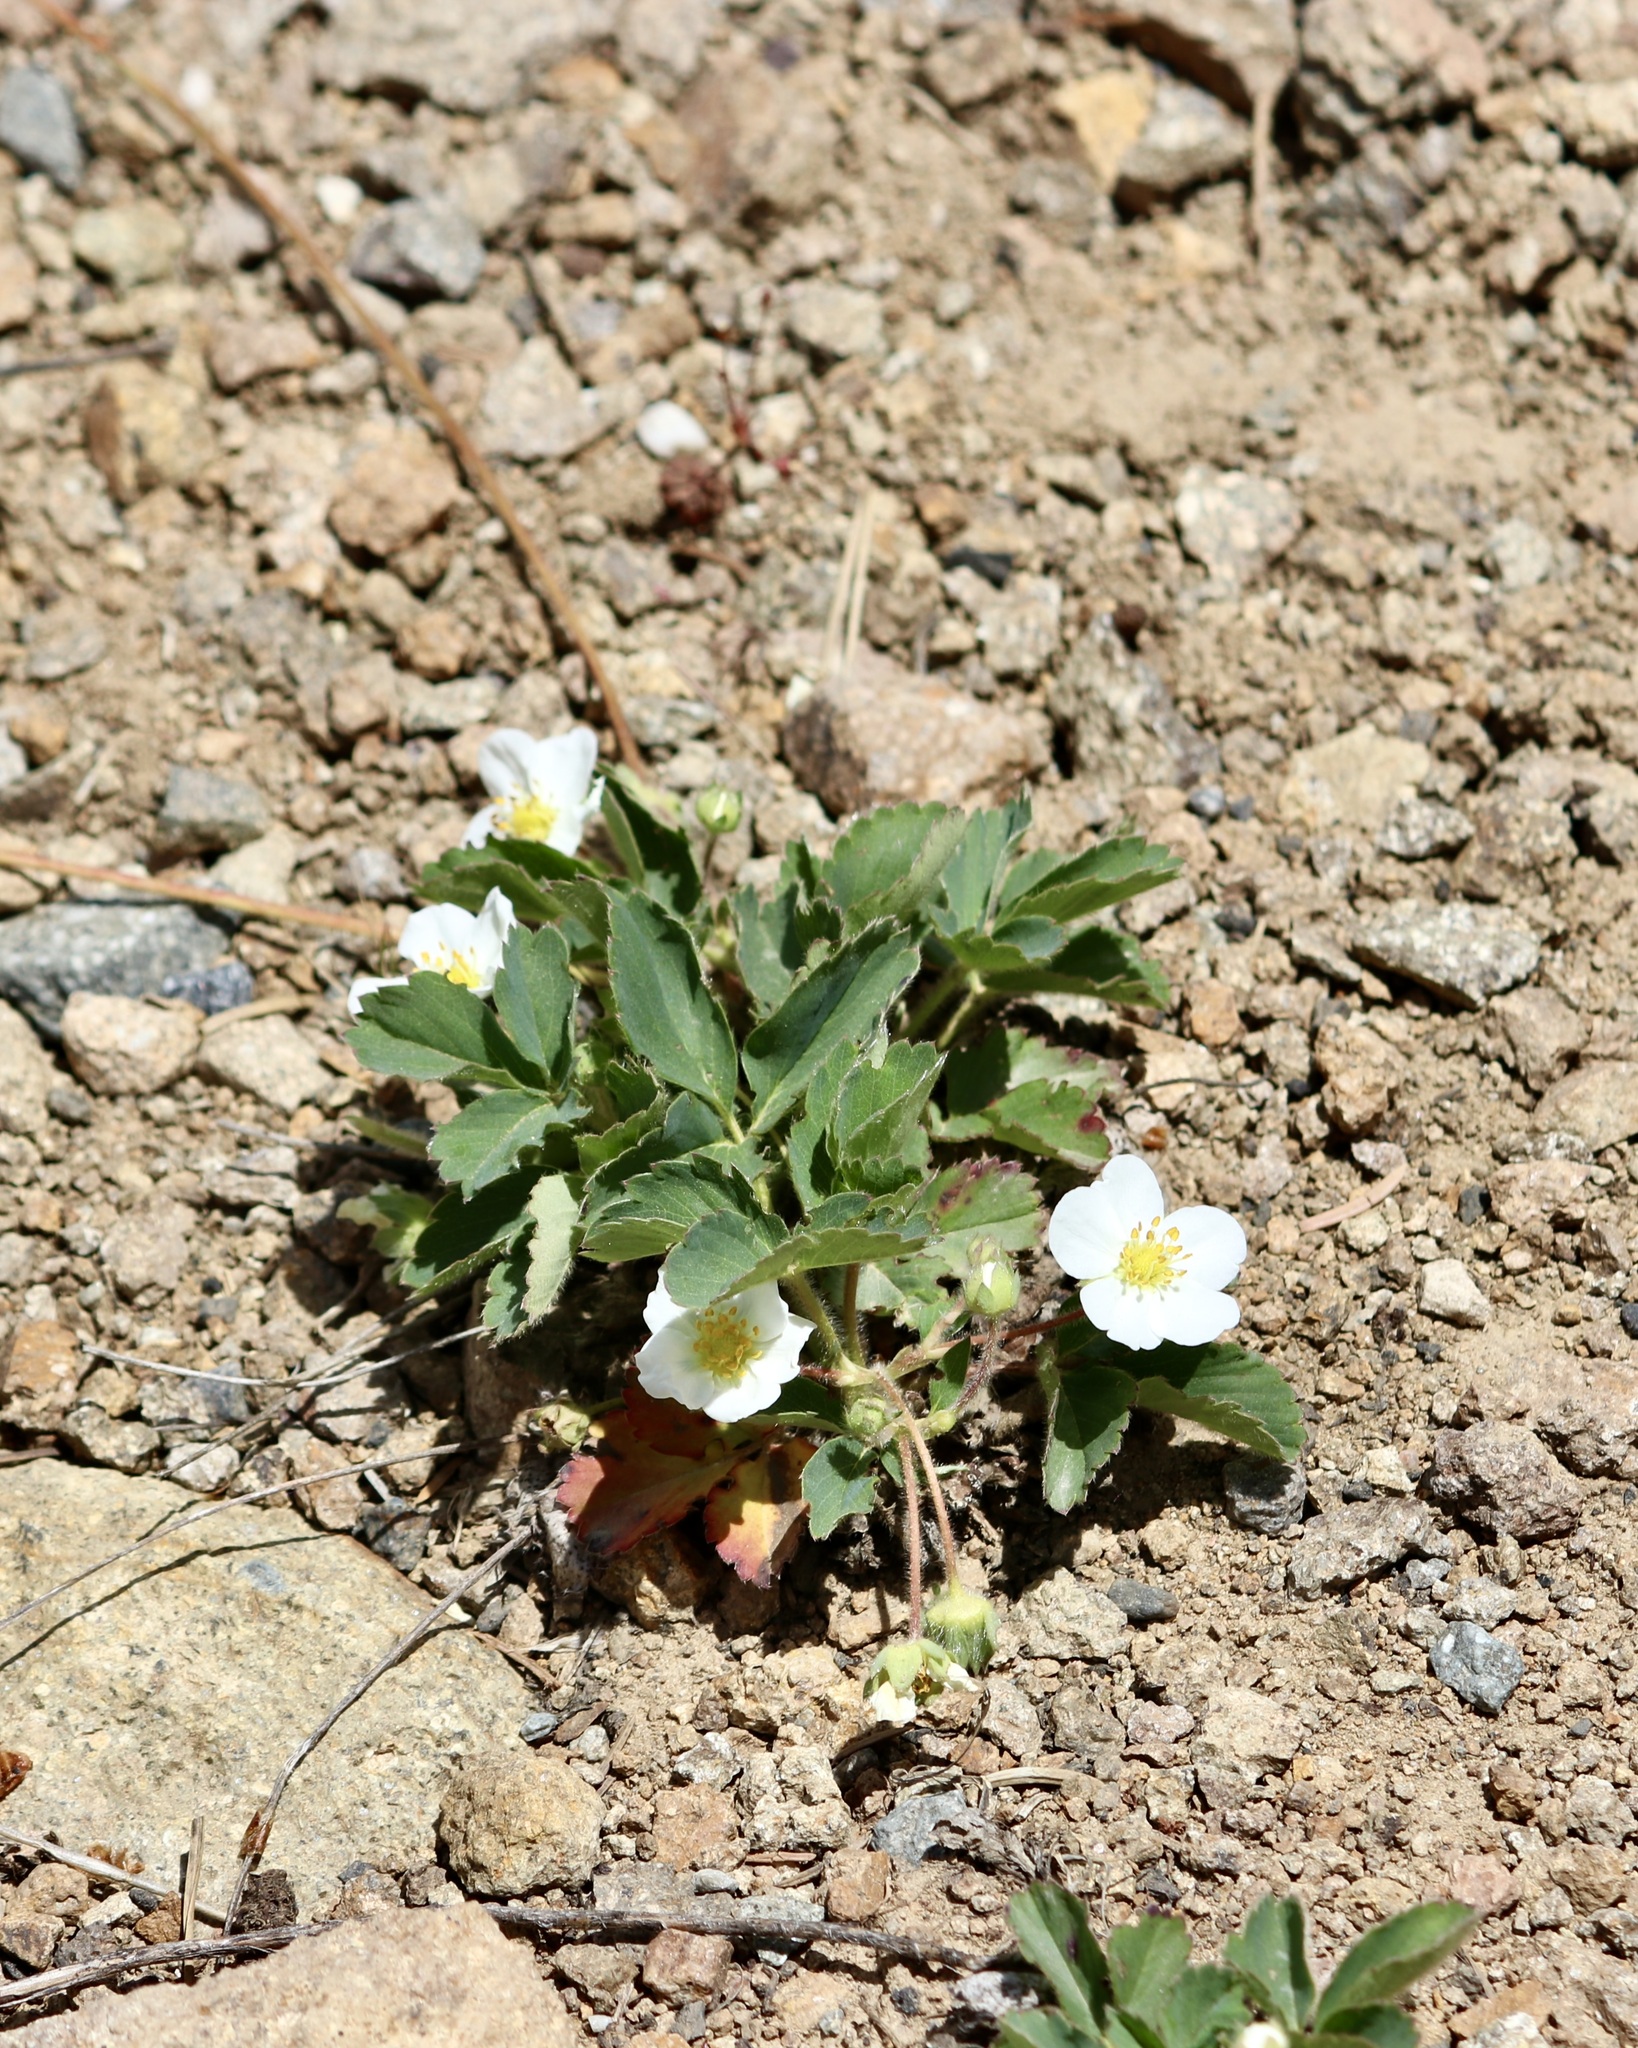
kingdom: Plantae
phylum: Tracheophyta
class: Magnoliopsida
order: Rosales
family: Rosaceae
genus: Fragaria
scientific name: Fragaria virginiana
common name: Thickleaved wild strawberry
